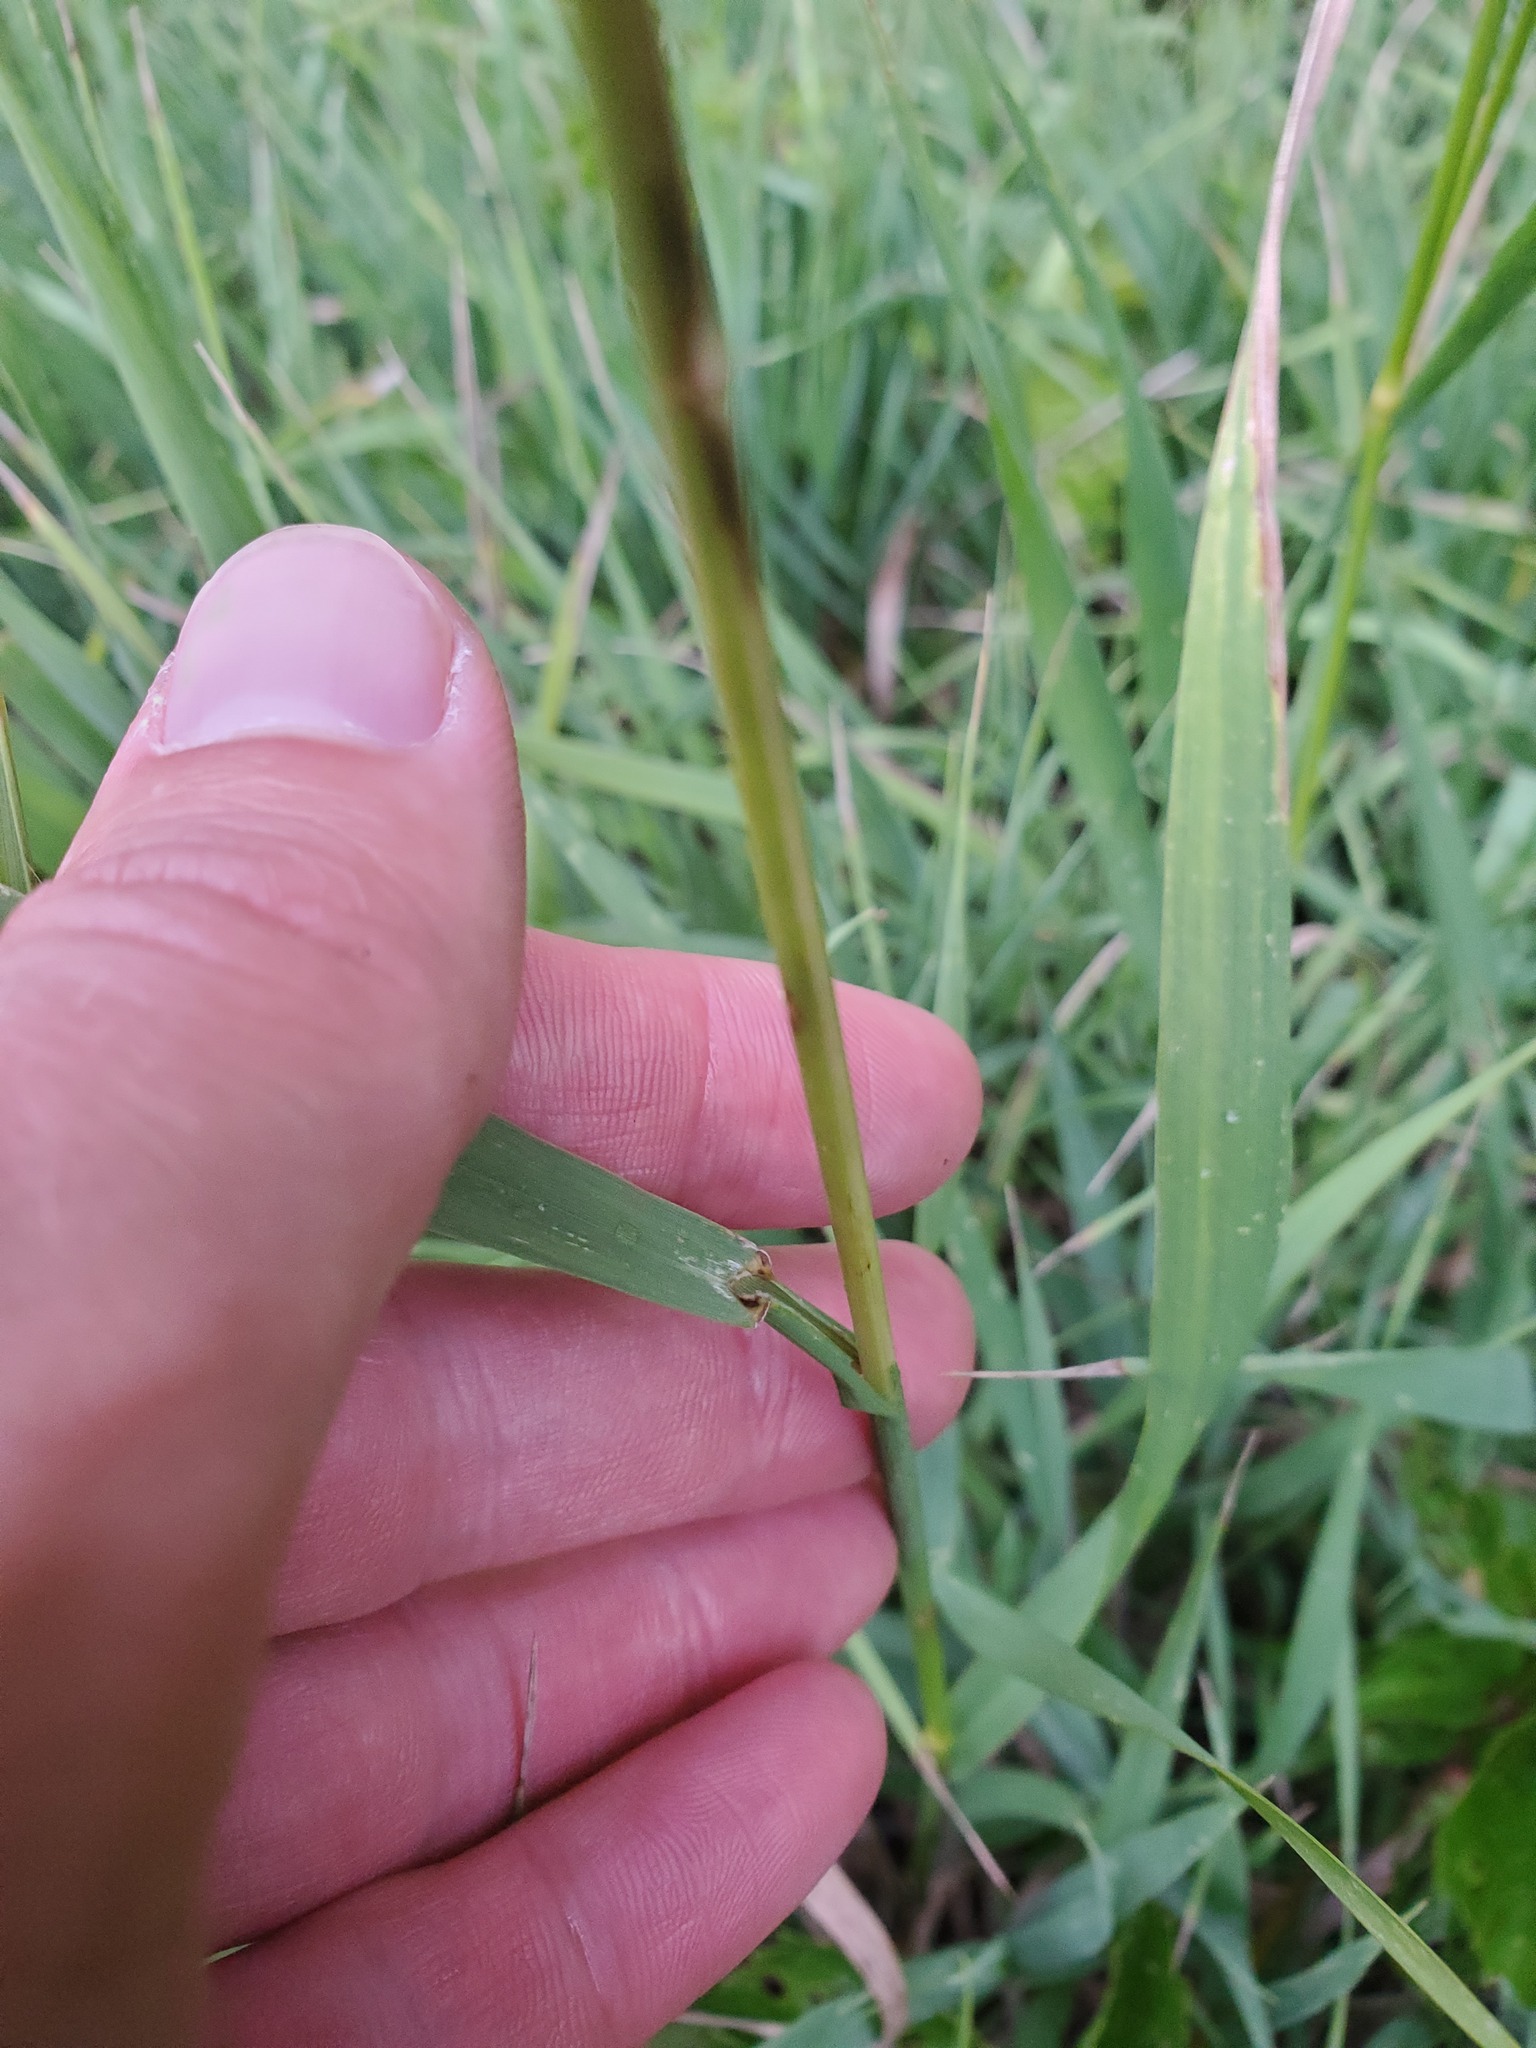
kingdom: Plantae
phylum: Tracheophyta
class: Liliopsida
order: Poales
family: Poaceae
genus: Bromus
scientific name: Bromus inermis
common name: Smooth brome
